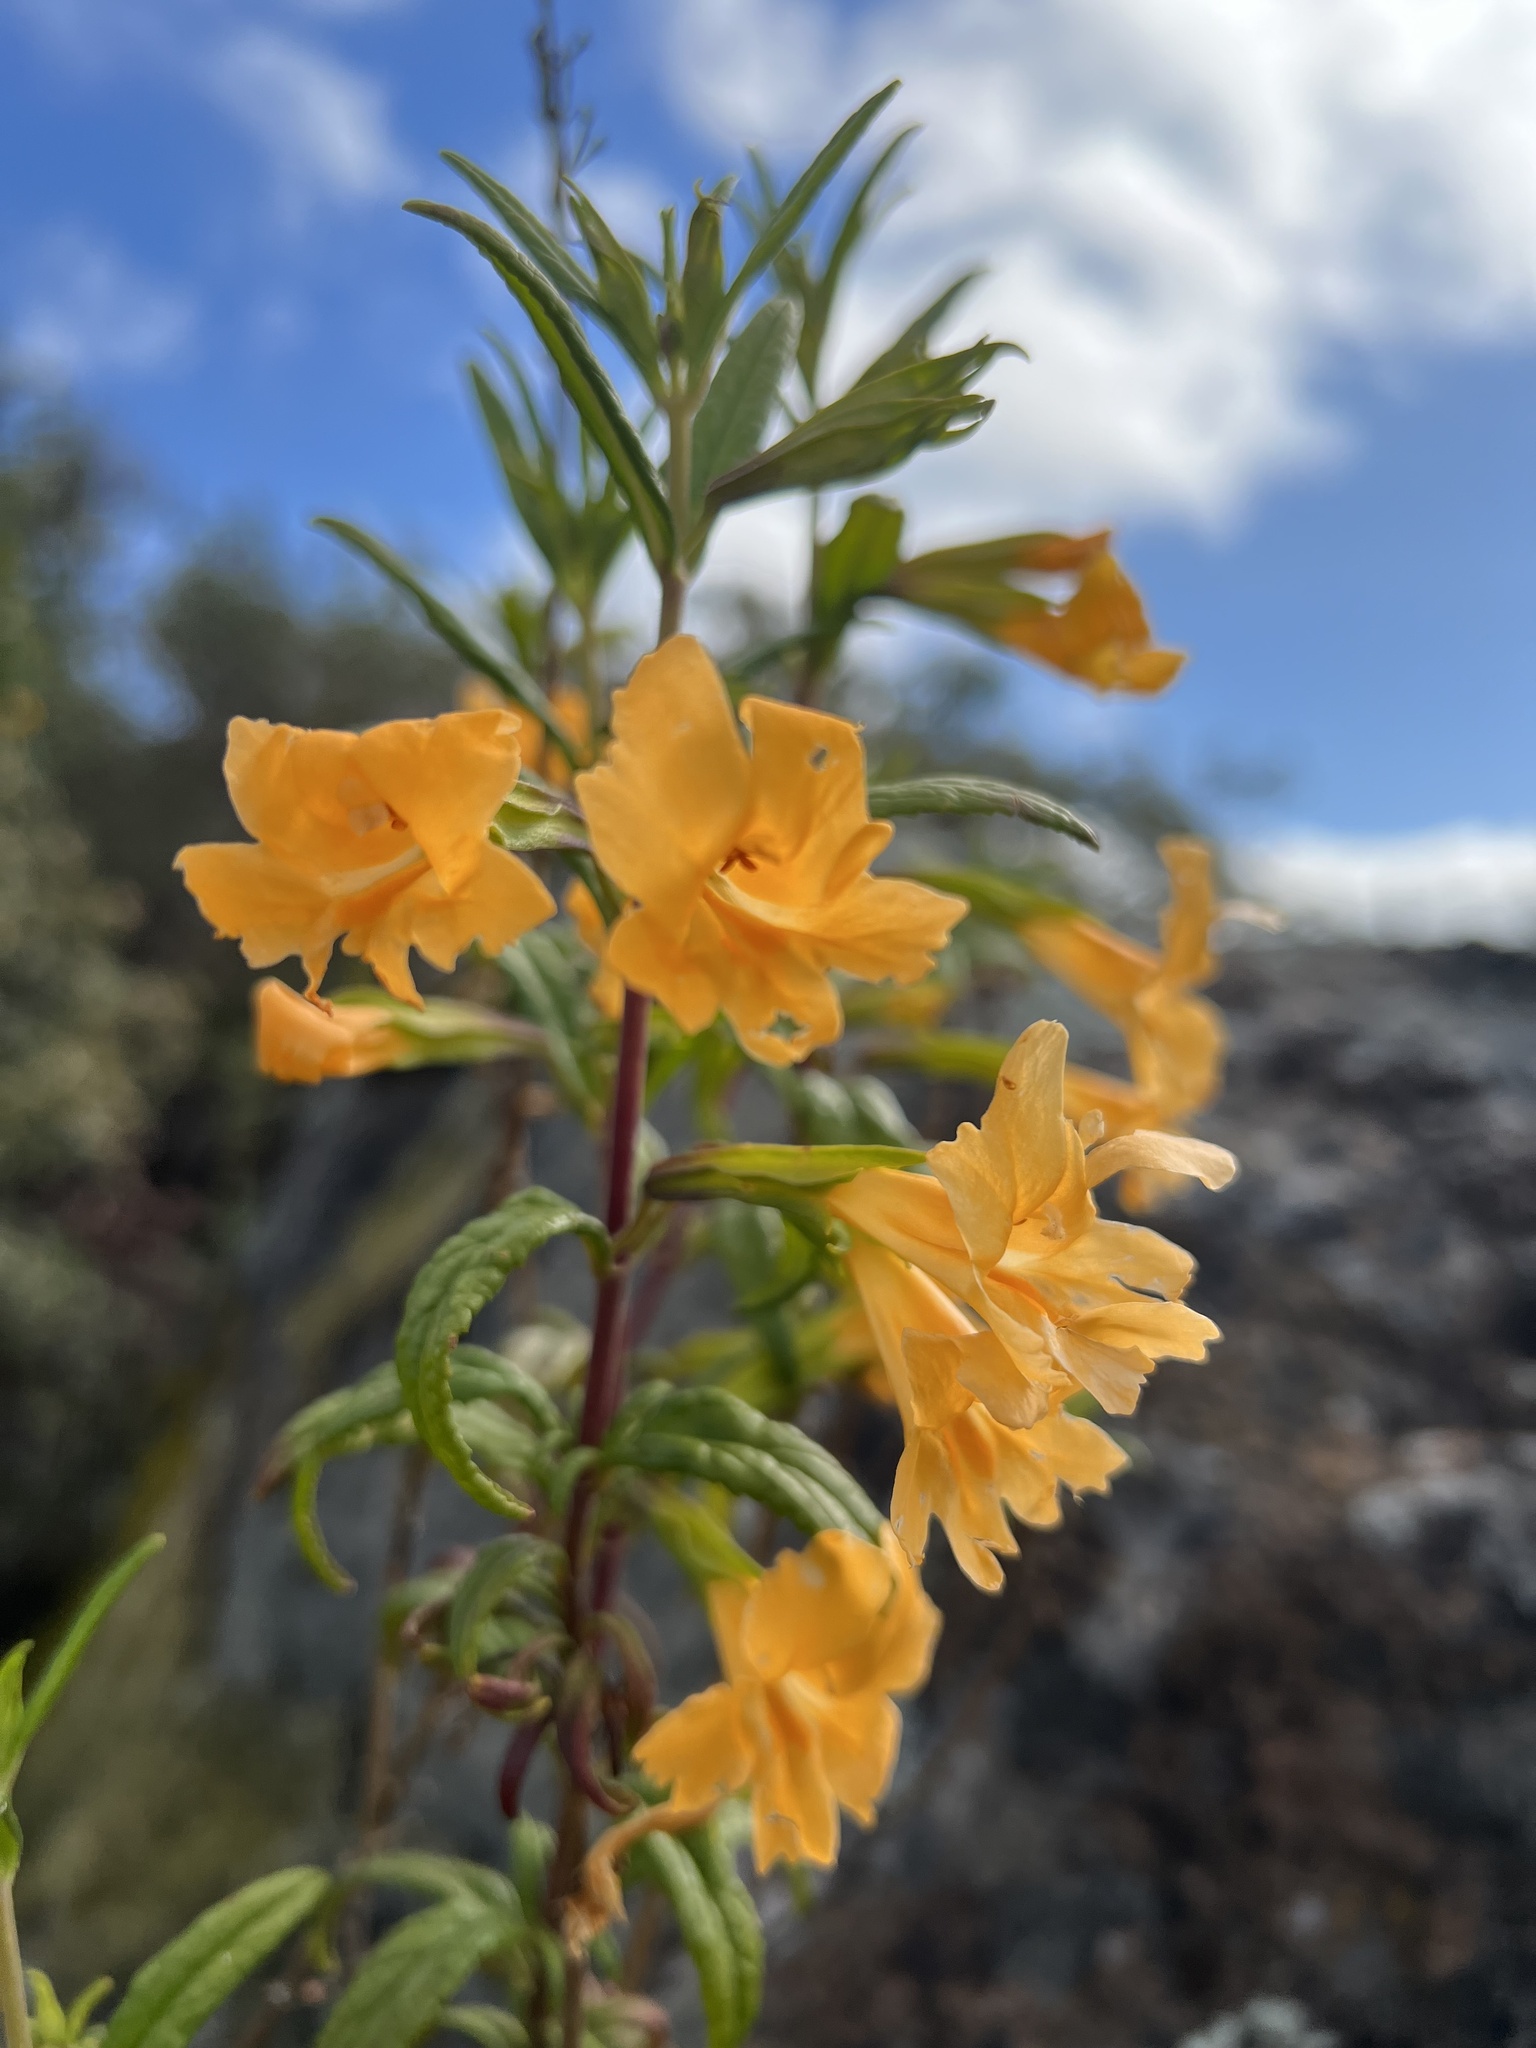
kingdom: Plantae
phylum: Tracheophyta
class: Magnoliopsida
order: Lamiales
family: Phrymaceae
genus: Diplacus
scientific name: Diplacus aurantiacus
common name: Bush monkey-flower
